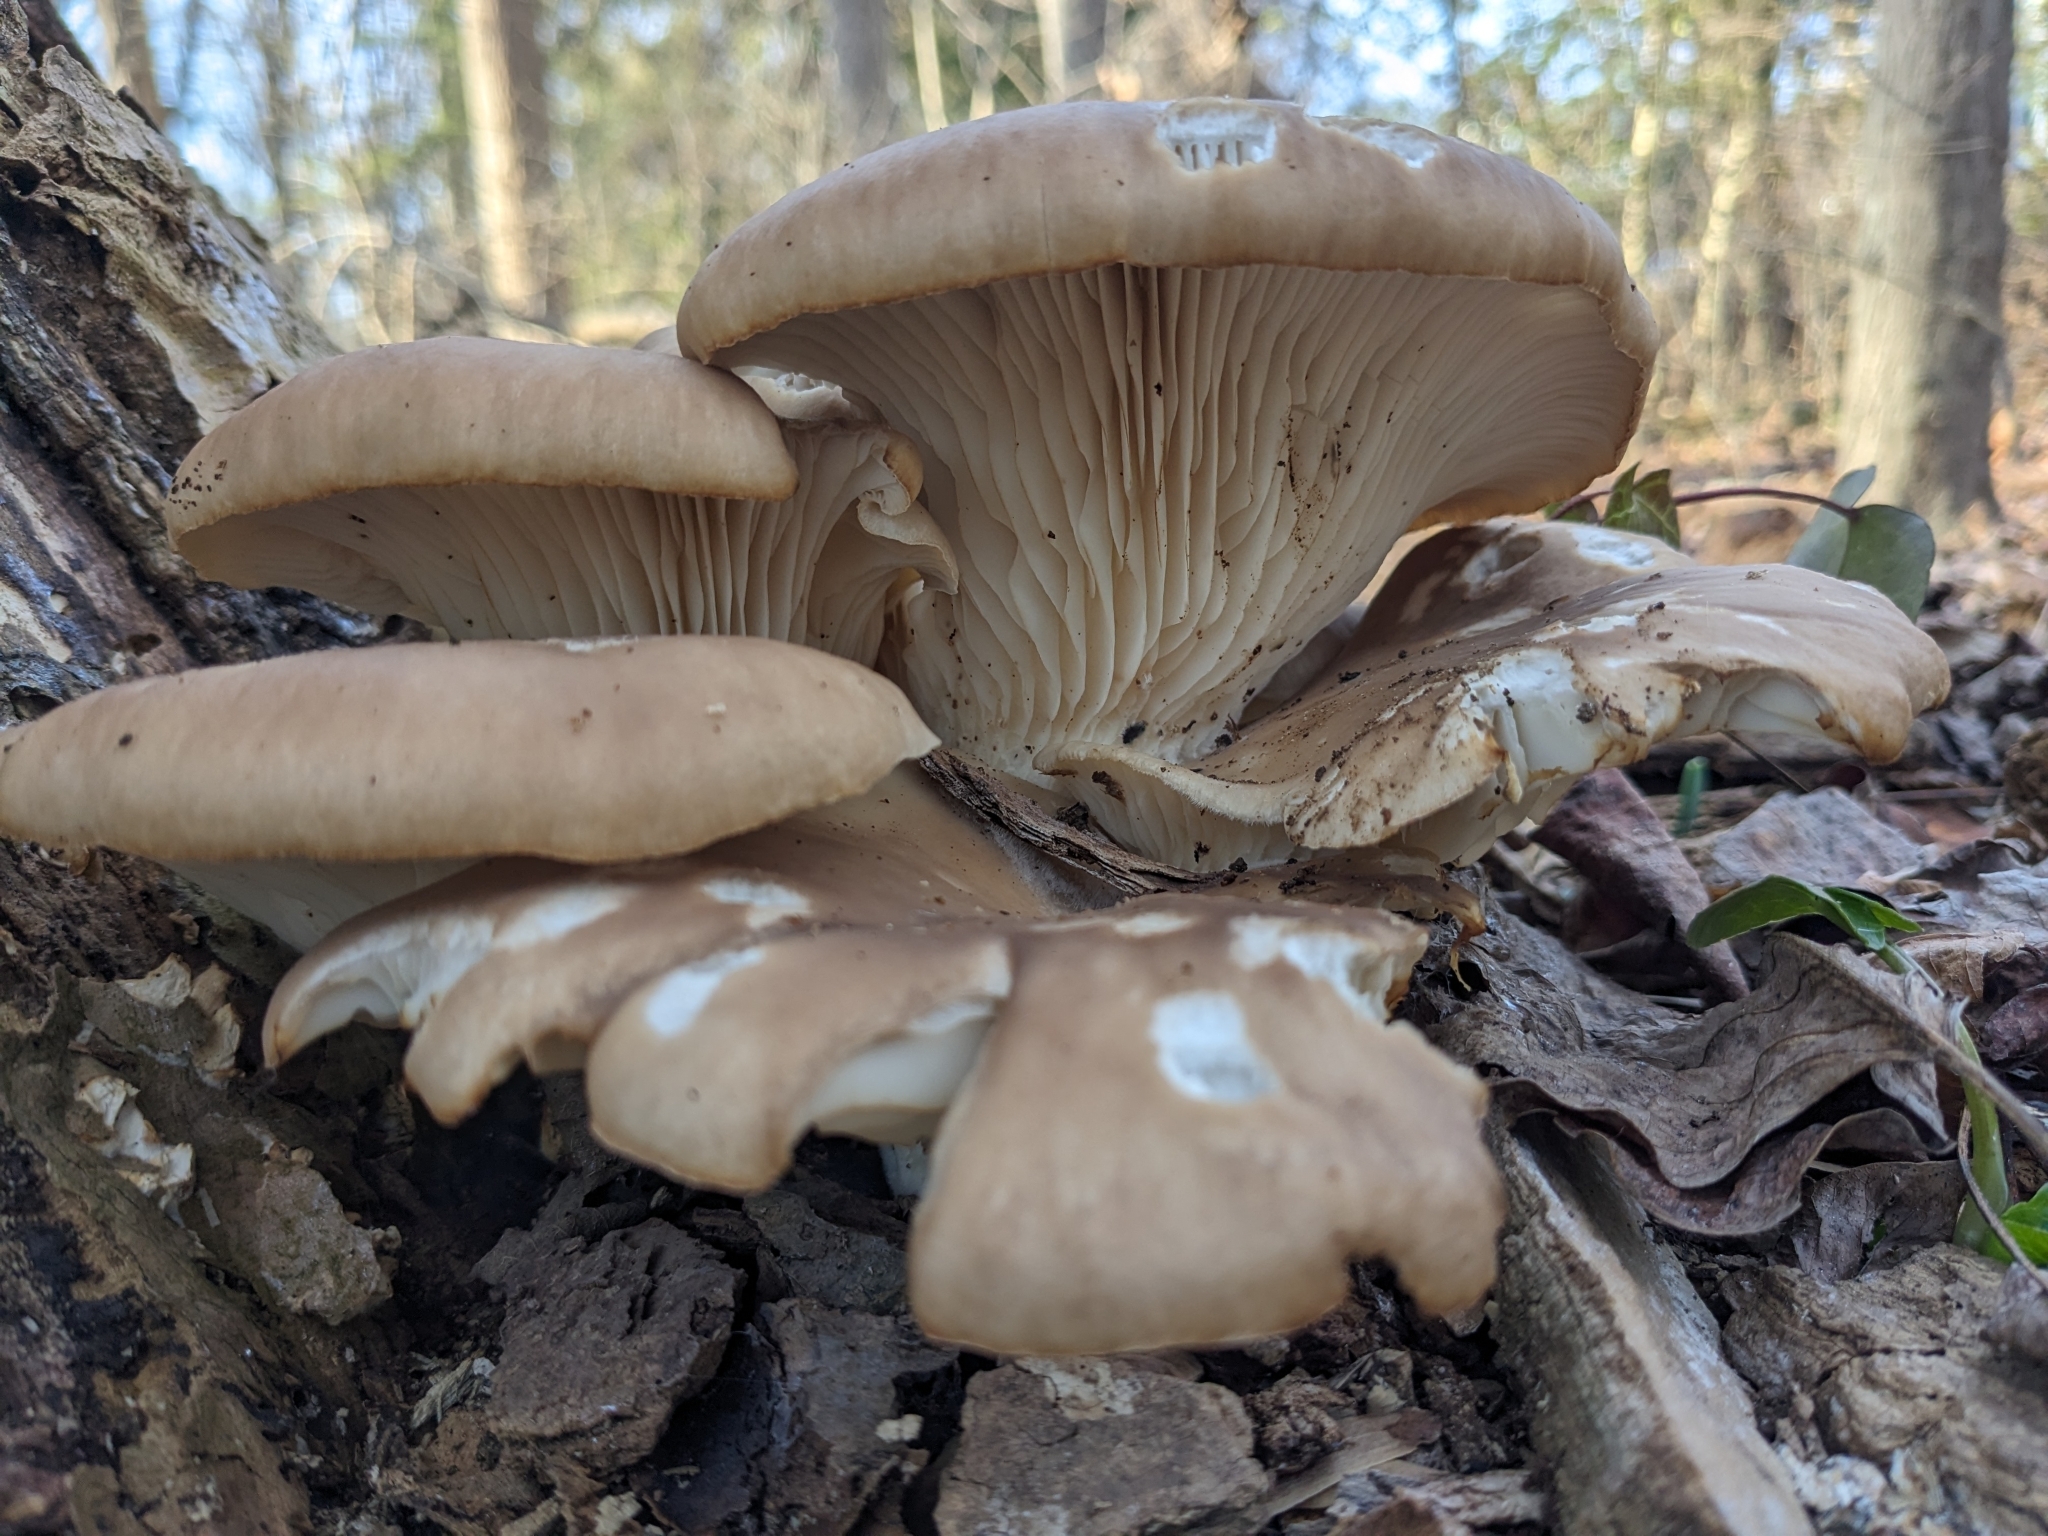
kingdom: Fungi
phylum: Basidiomycota
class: Agaricomycetes
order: Agaricales
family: Pleurotaceae
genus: Pleurotus
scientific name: Pleurotus ostreatus
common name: Oyster mushroom
